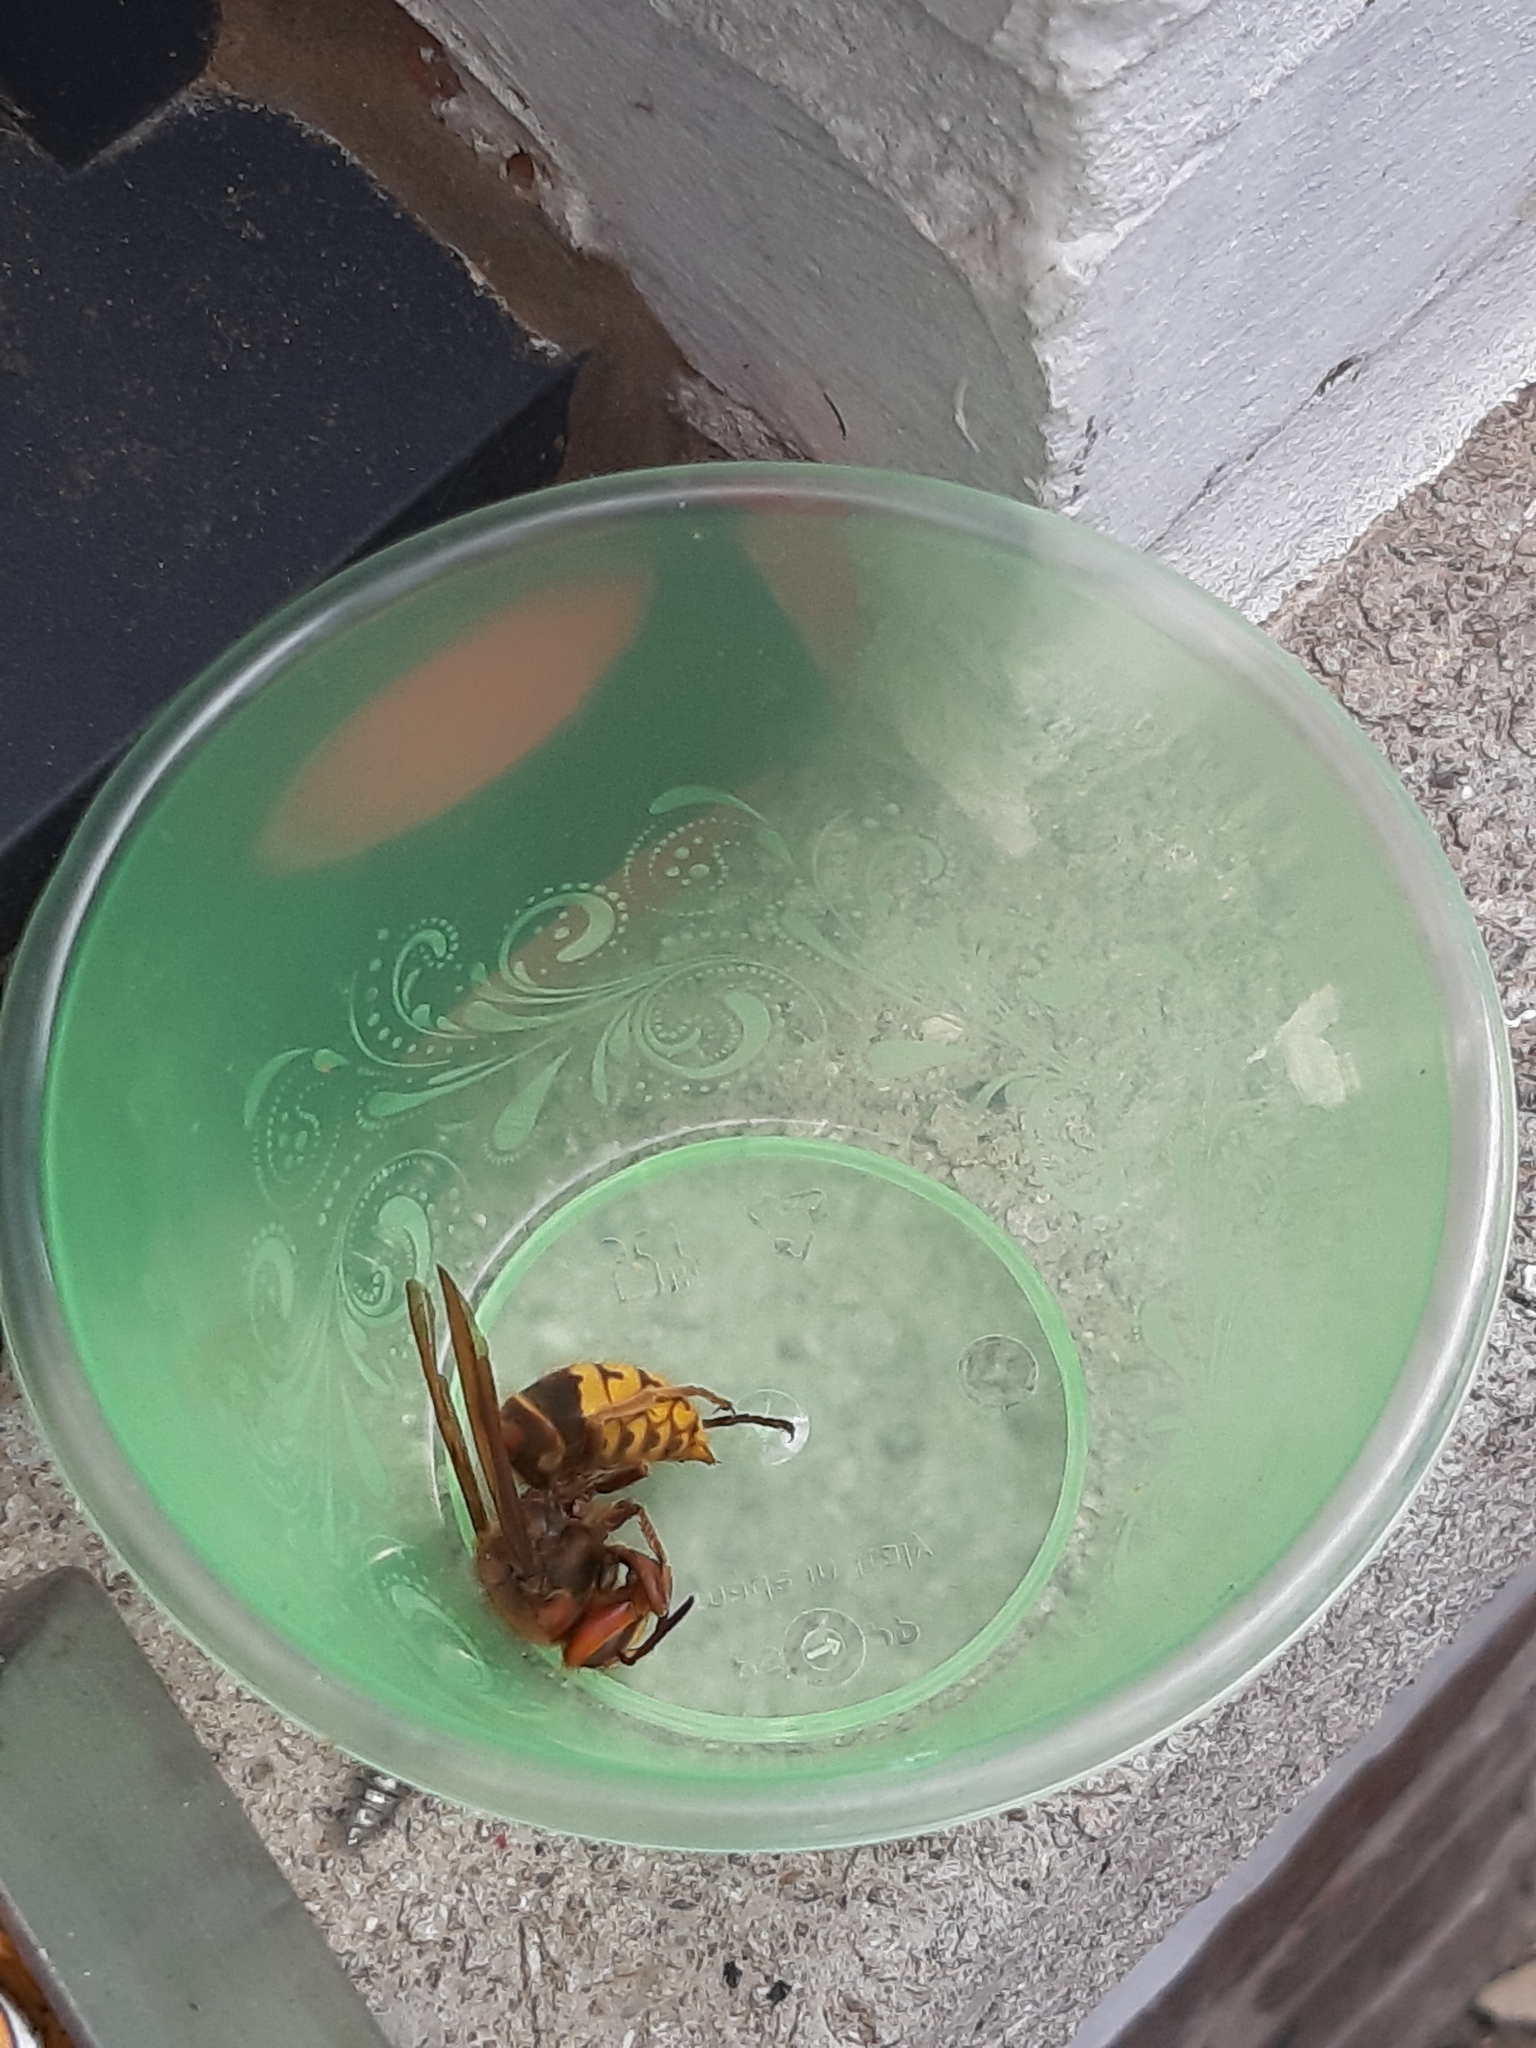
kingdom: Animalia
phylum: Arthropoda
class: Insecta
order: Hymenoptera
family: Vespidae
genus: Vespa
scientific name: Vespa crabro
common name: Hornet
